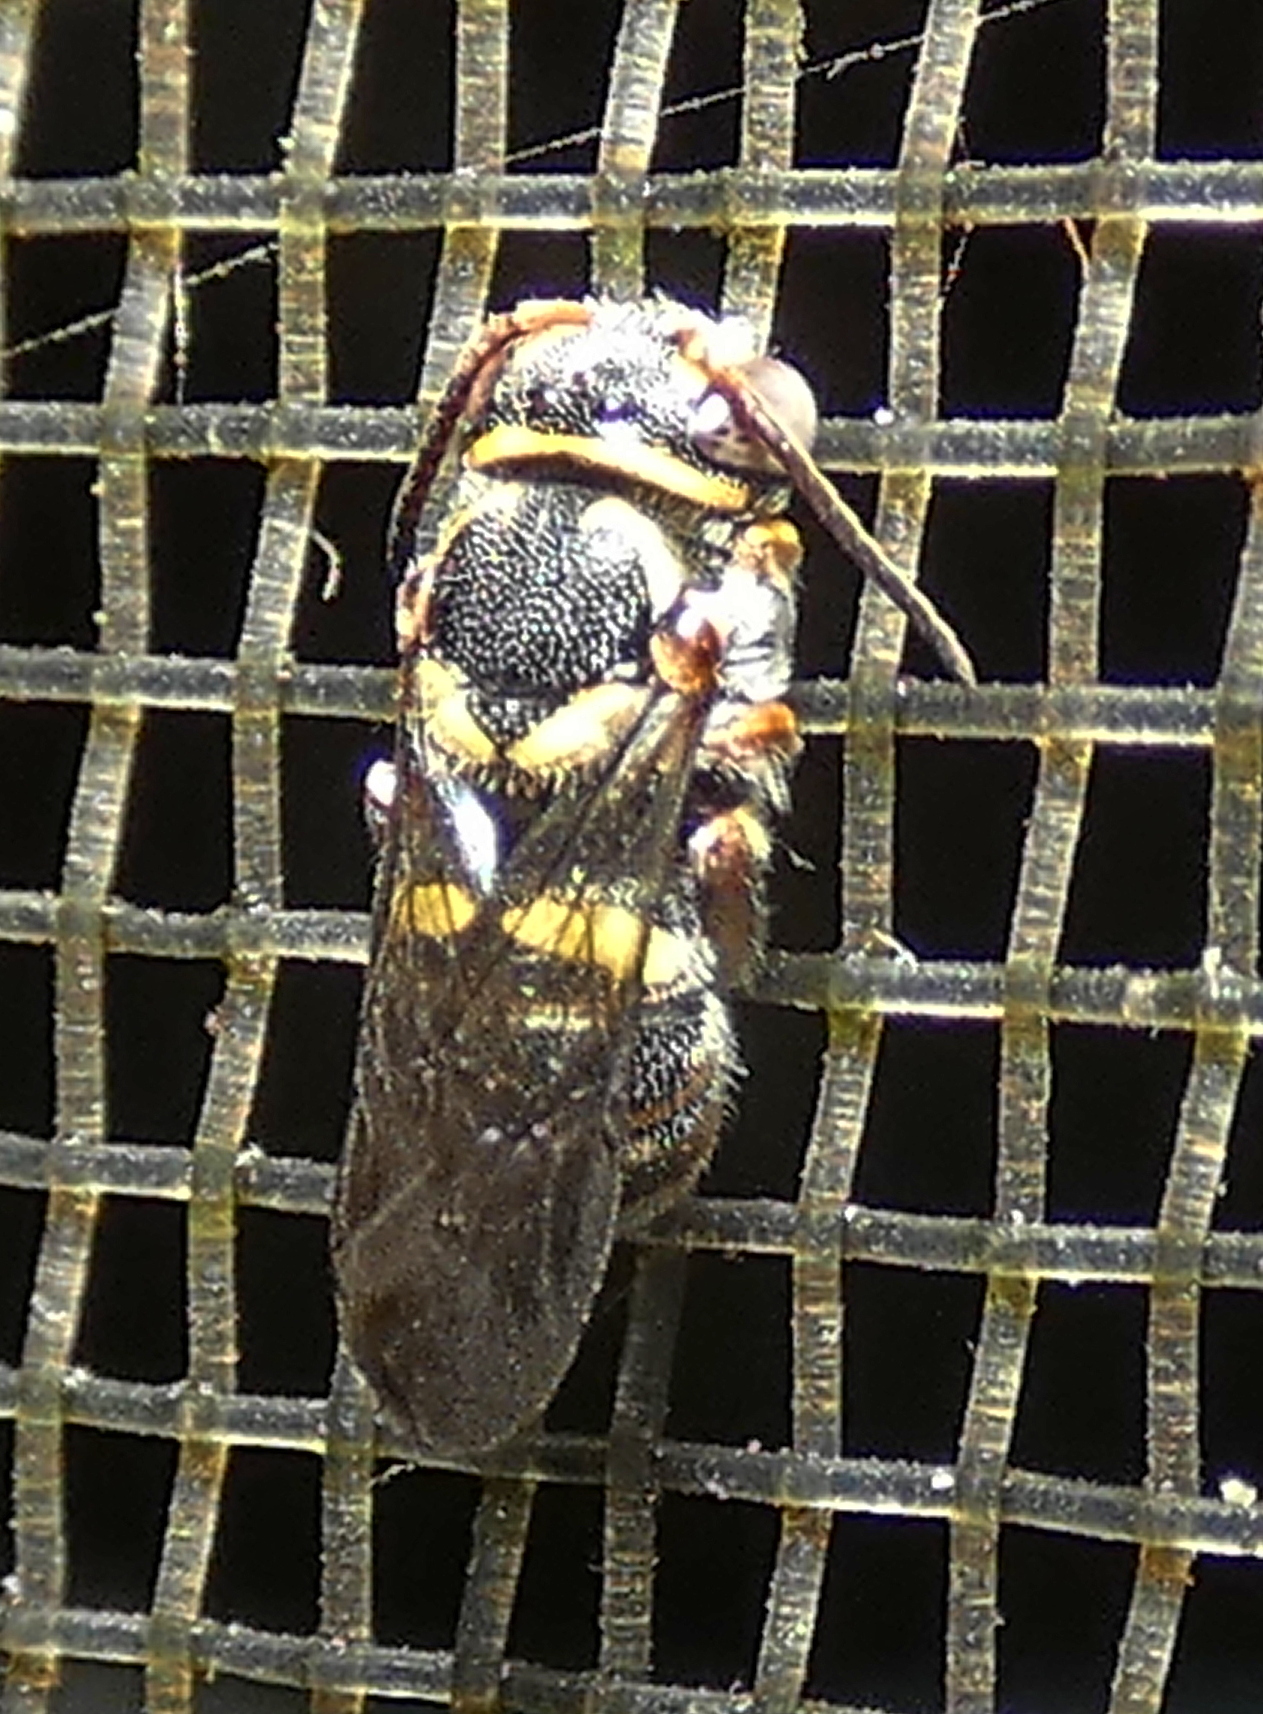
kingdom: Animalia
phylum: Arthropoda
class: Insecta
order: Hymenoptera
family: Megachilidae
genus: Hypanthidioides
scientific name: Hypanthidioides arenaria
